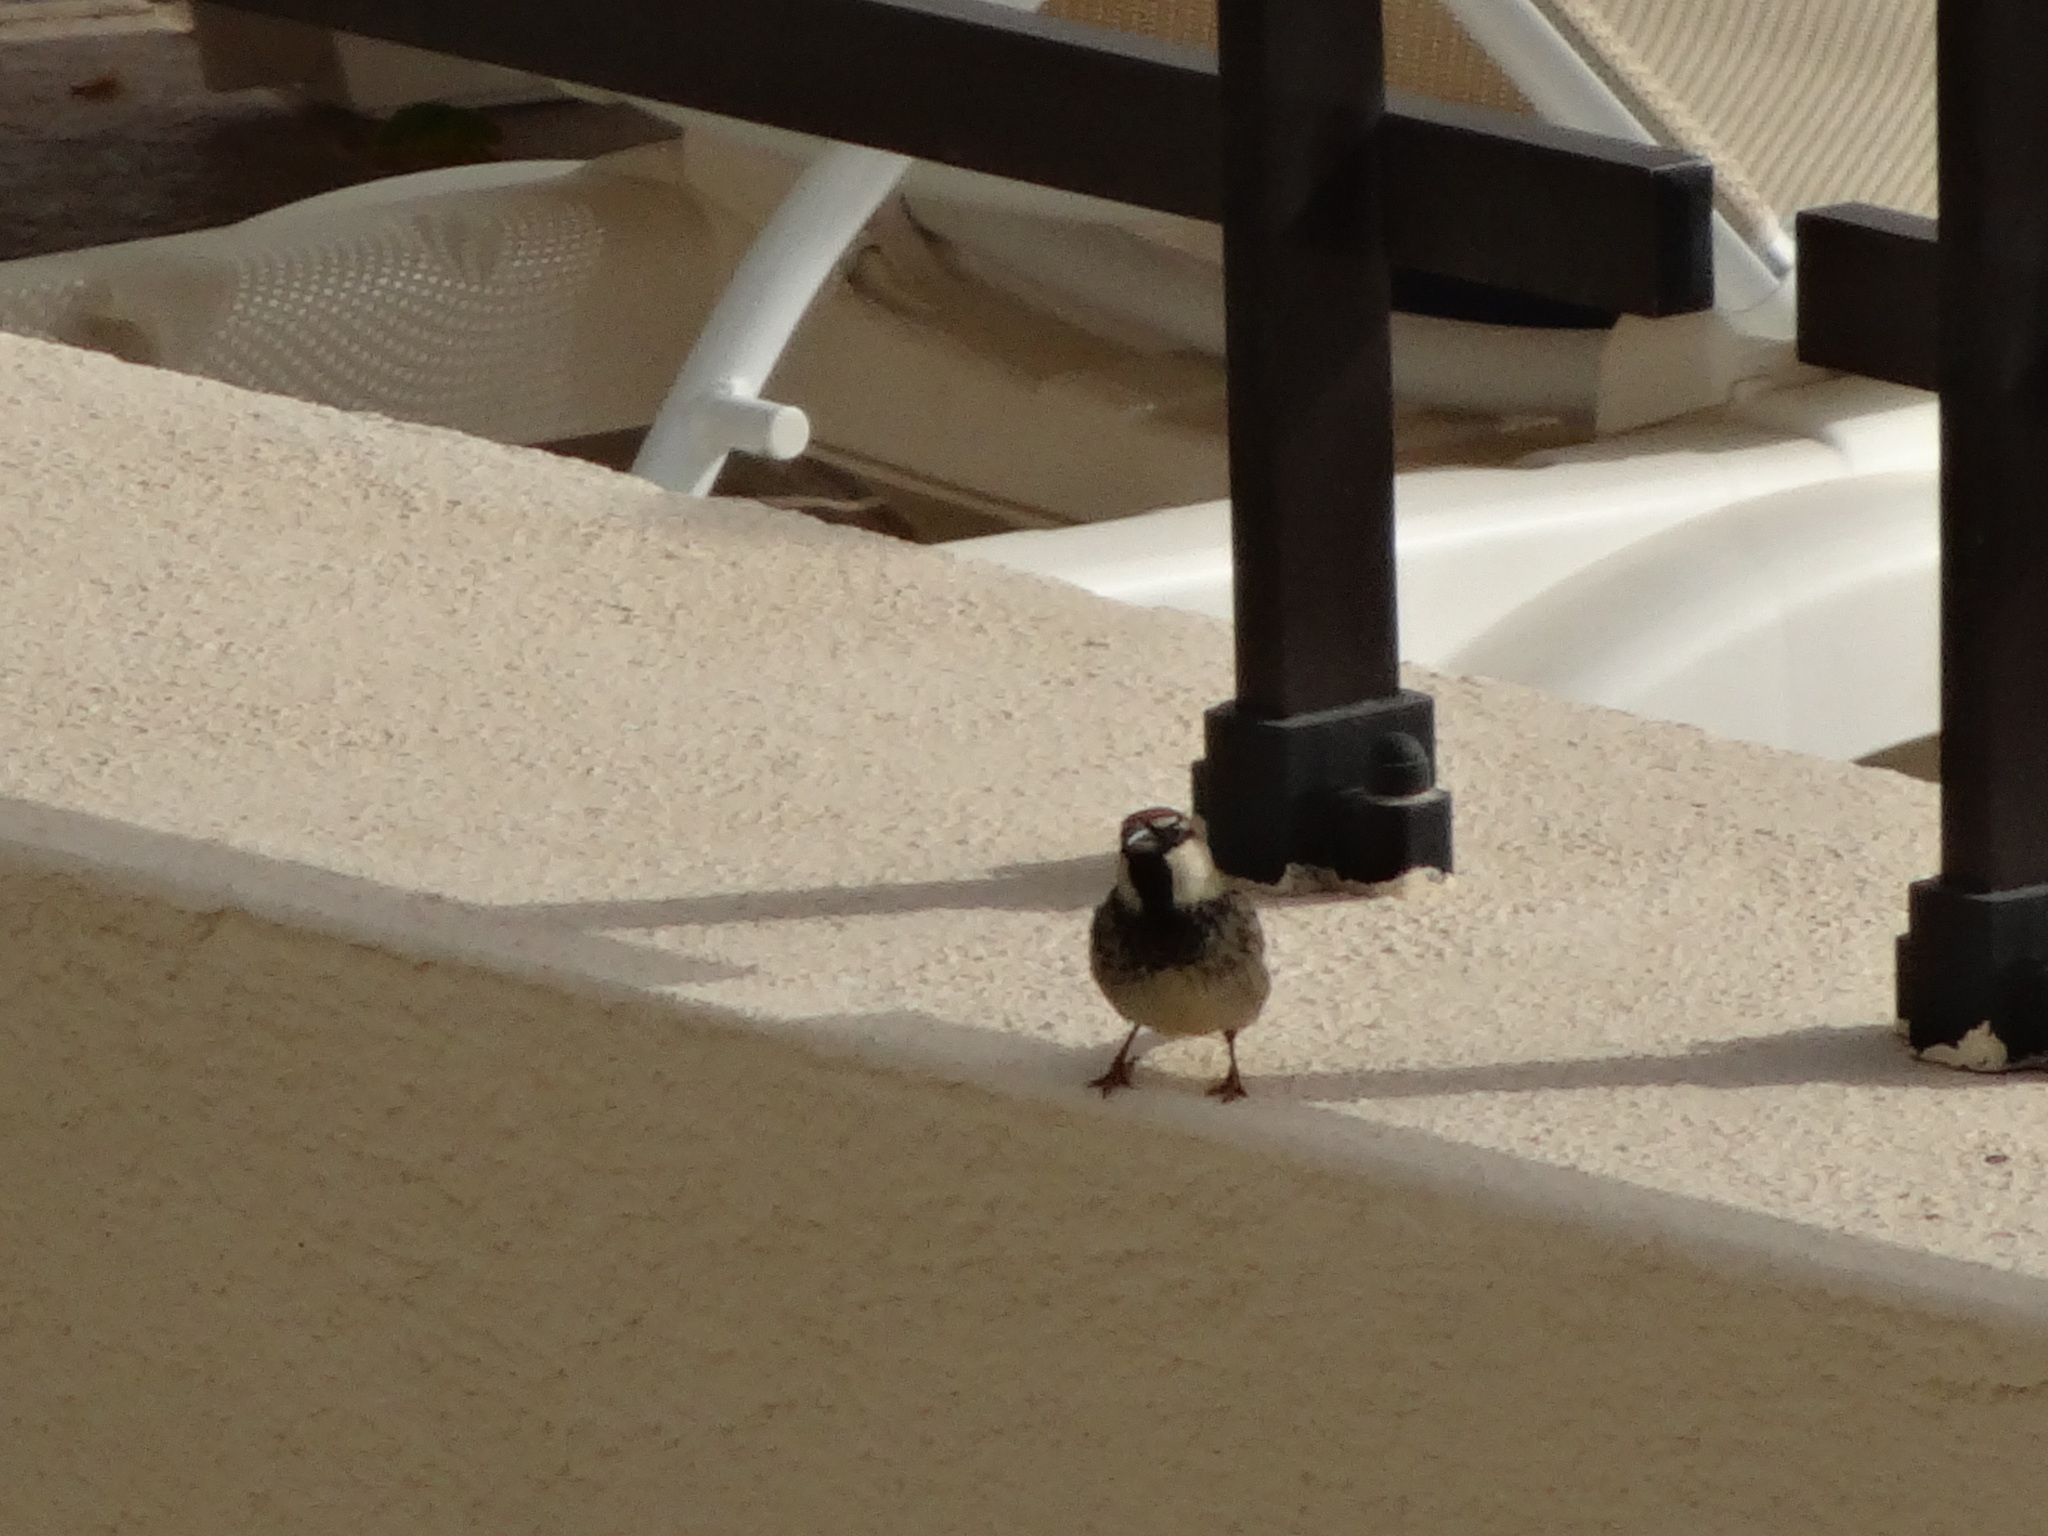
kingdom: Animalia
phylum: Chordata
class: Aves
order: Passeriformes
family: Passeridae
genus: Passer
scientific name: Passer hispaniolensis
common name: Spanish sparrow
